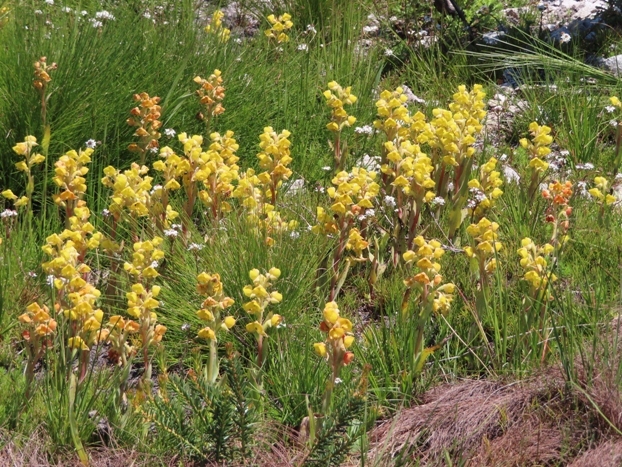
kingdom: Plantae
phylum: Tracheophyta
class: Liliopsida
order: Asparagales
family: Orchidaceae
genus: Pterygodium
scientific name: Pterygodium acutifolium
